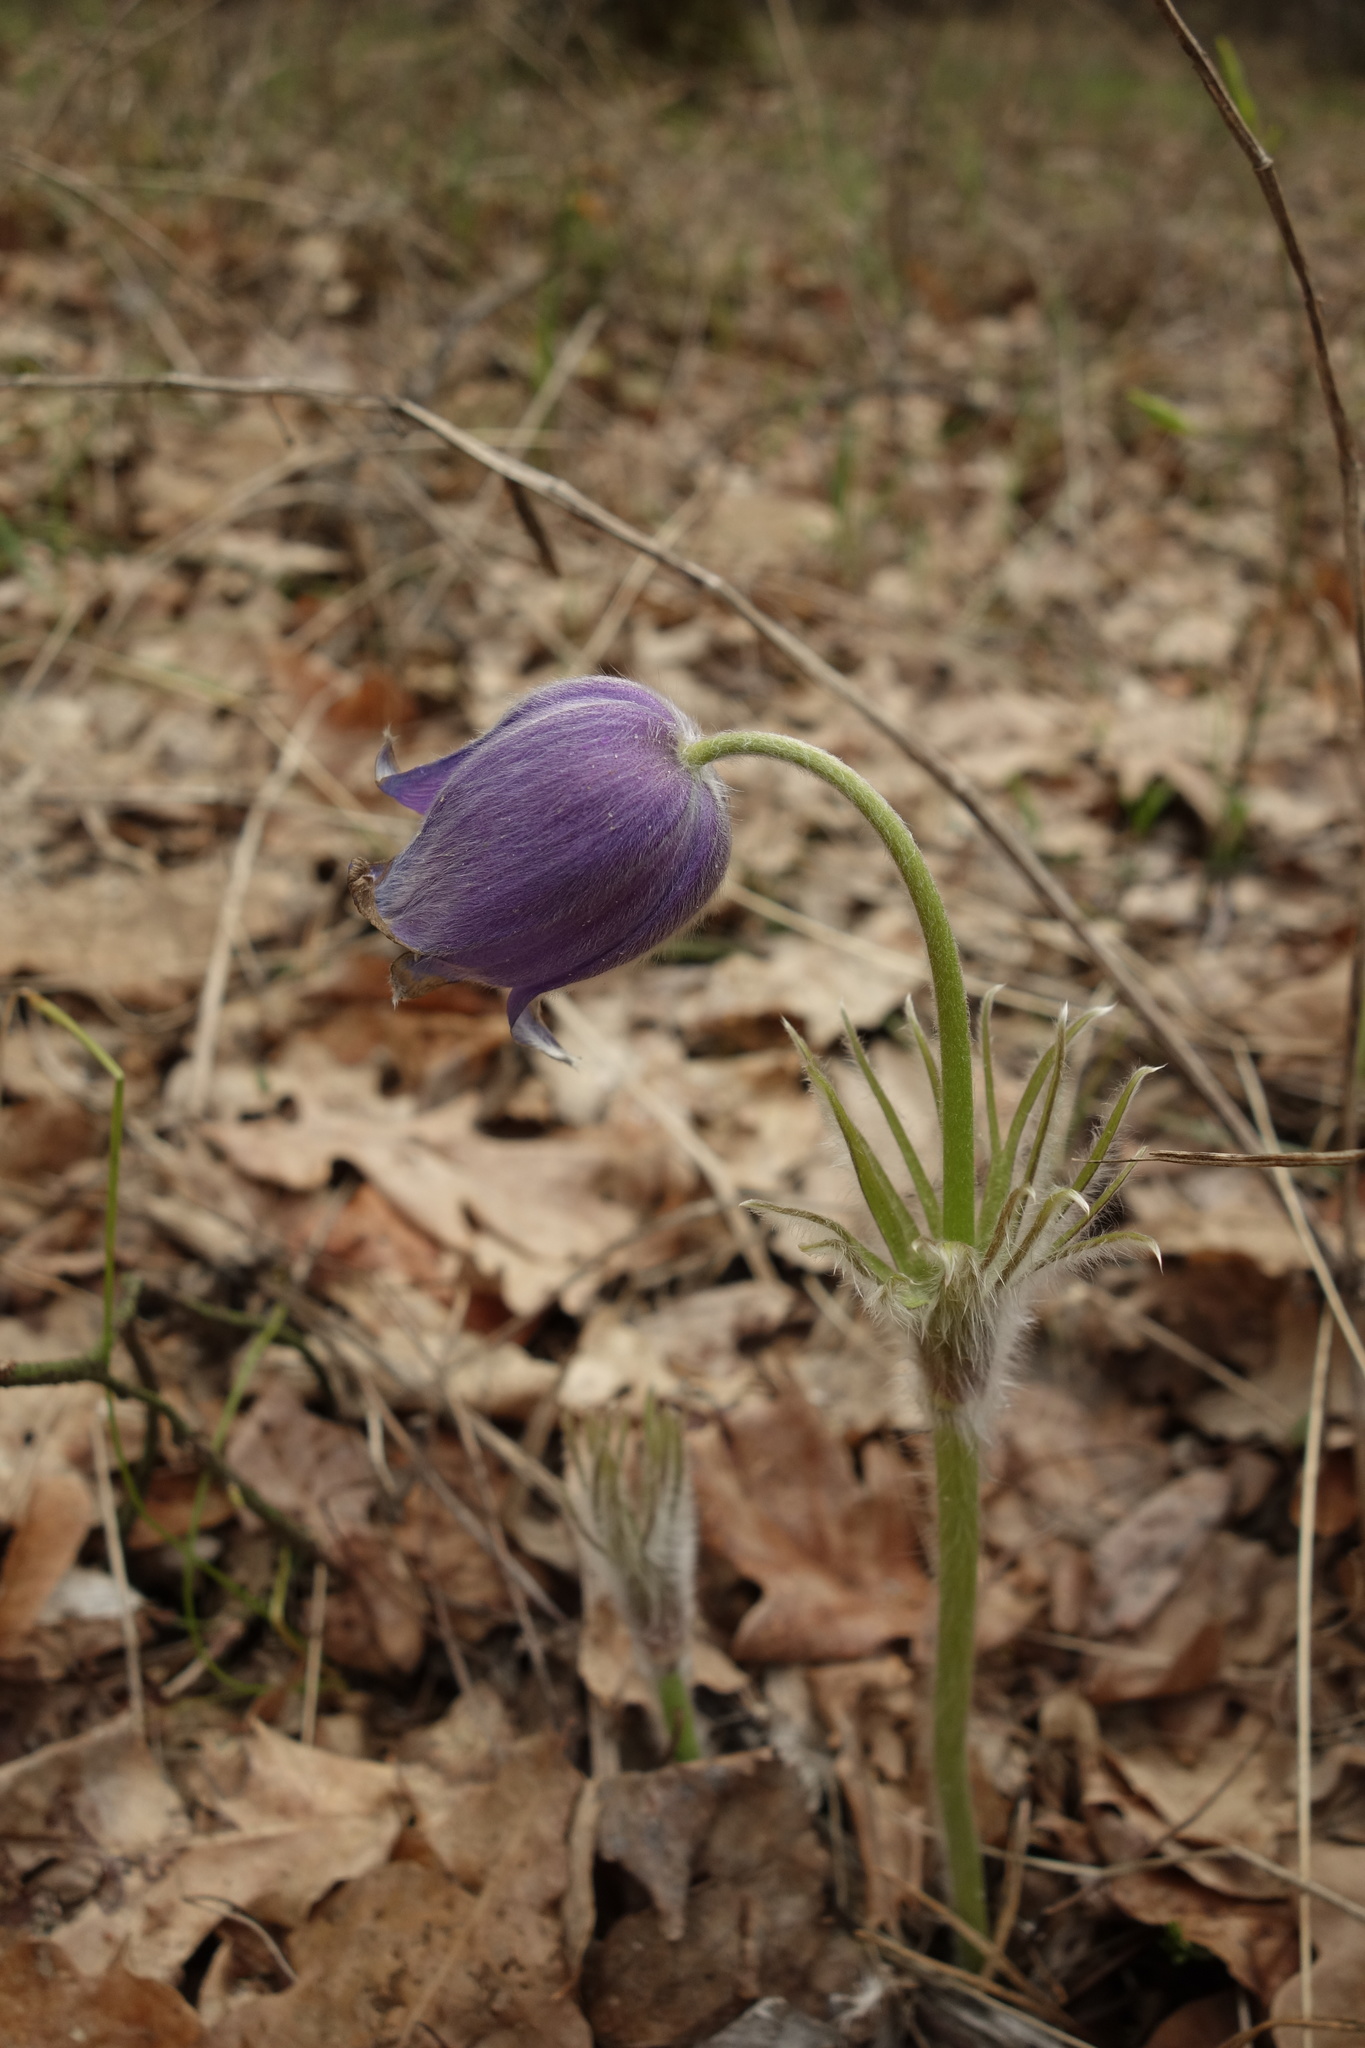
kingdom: Plantae
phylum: Tracheophyta
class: Magnoliopsida
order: Ranunculales
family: Ranunculaceae
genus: Pulsatilla
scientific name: Pulsatilla patens
